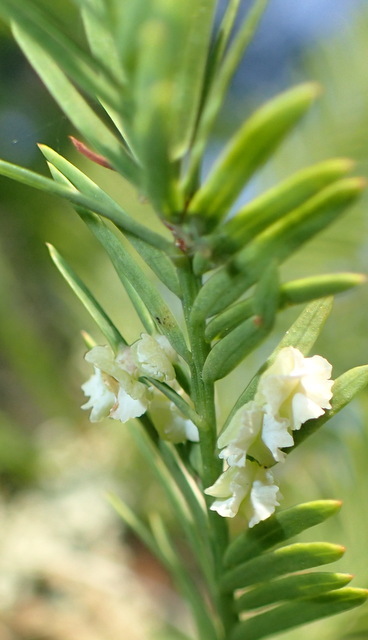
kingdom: Animalia
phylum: Arthropoda
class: Insecta
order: Diptera
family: Cecidomyiidae
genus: Taxodiomyia
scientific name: Taxodiomyia cupressi
